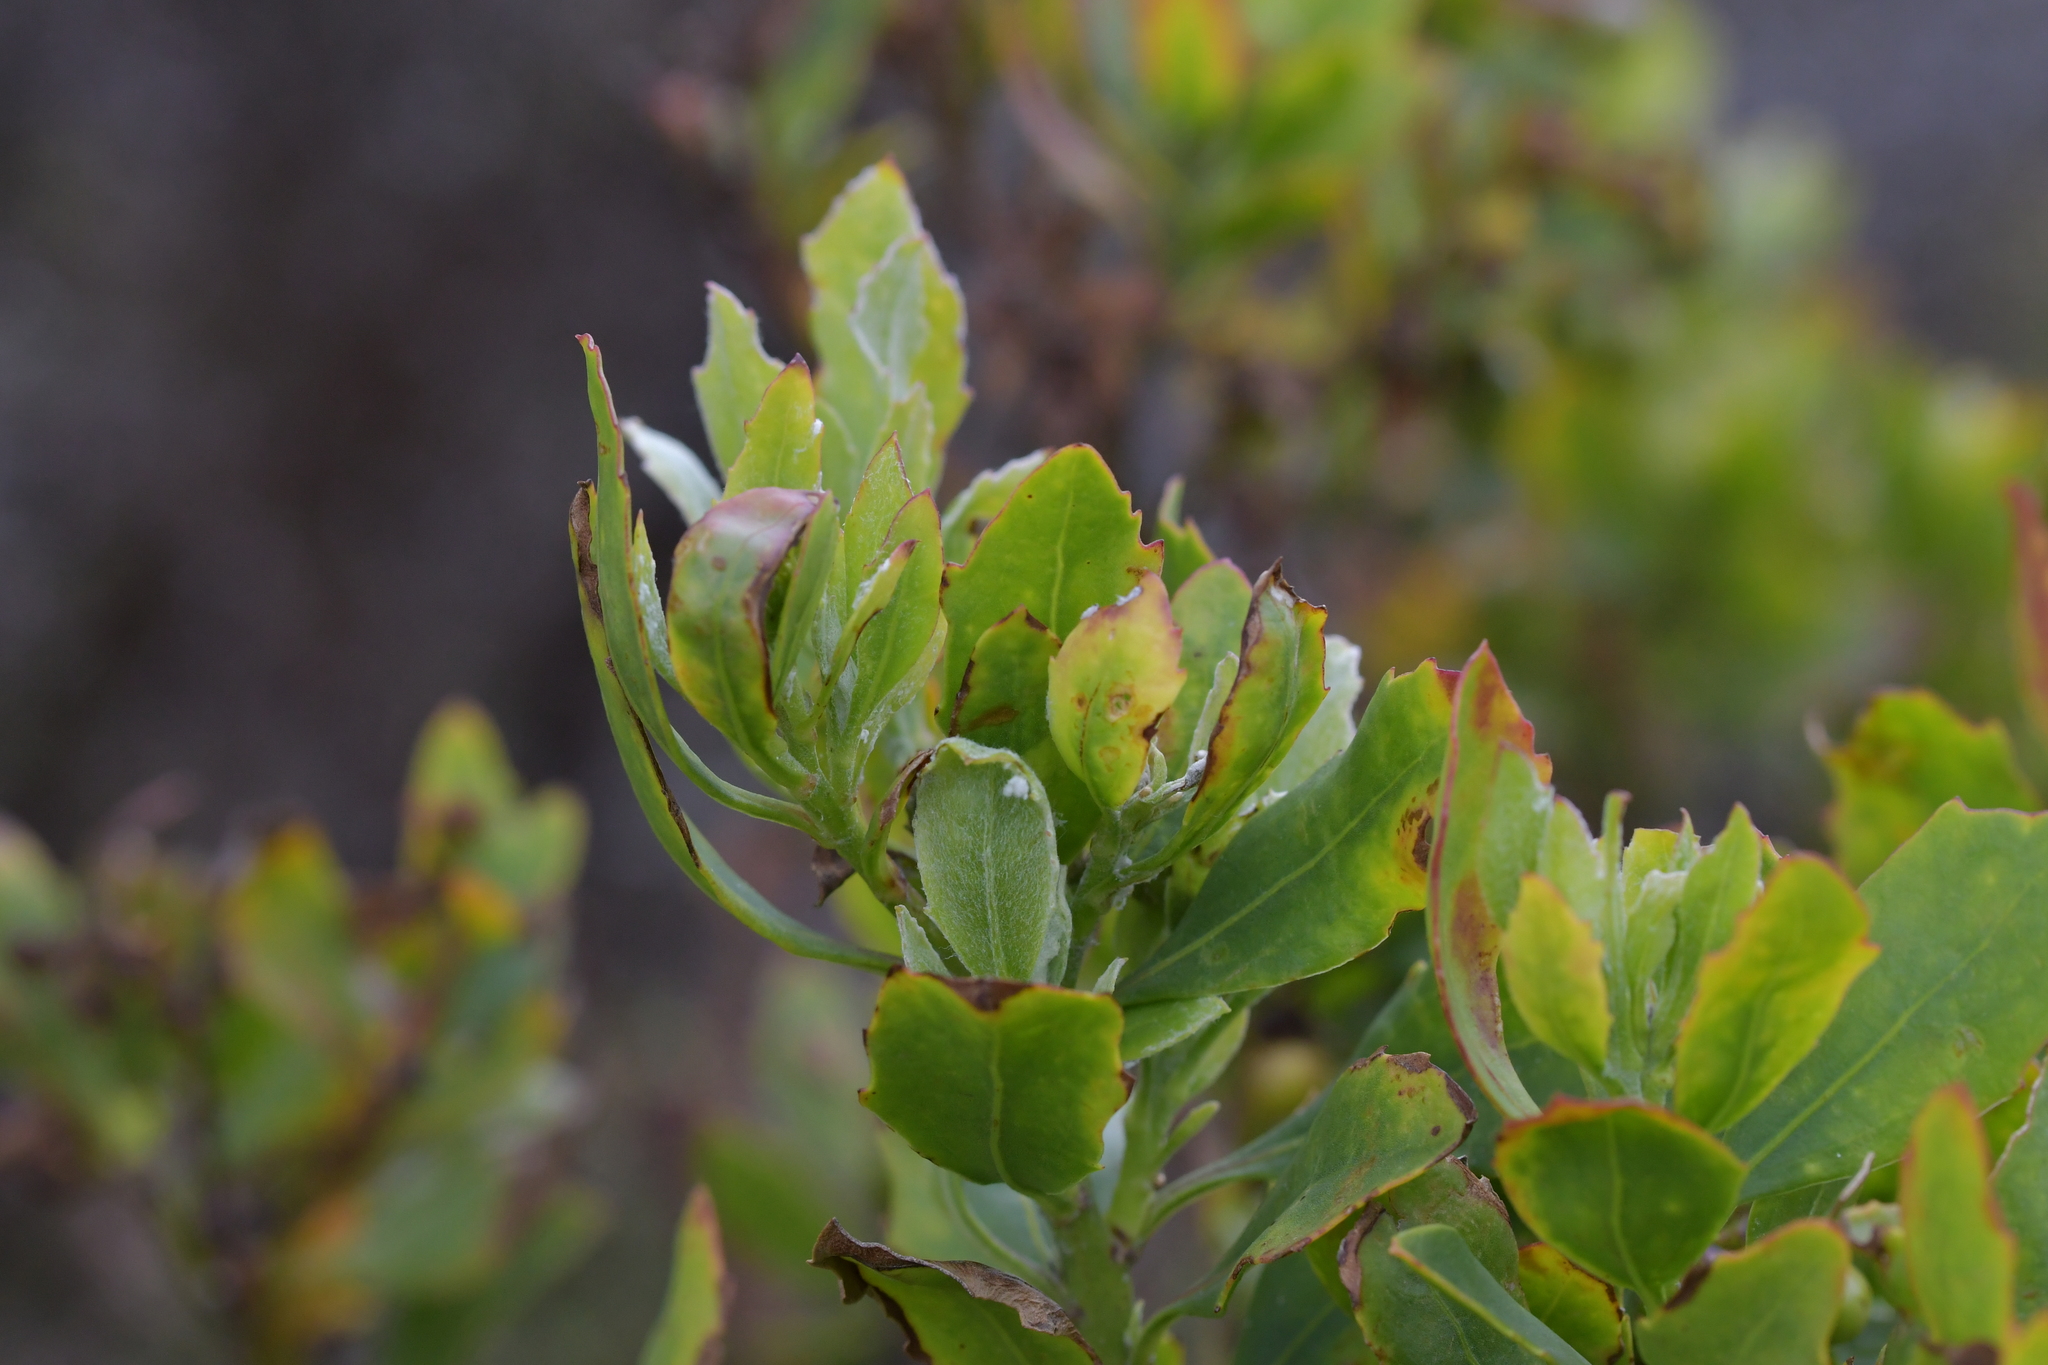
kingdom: Plantae
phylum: Tracheophyta
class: Magnoliopsida
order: Asterales
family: Asteraceae
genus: Osteospermum
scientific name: Osteospermum moniliferum
